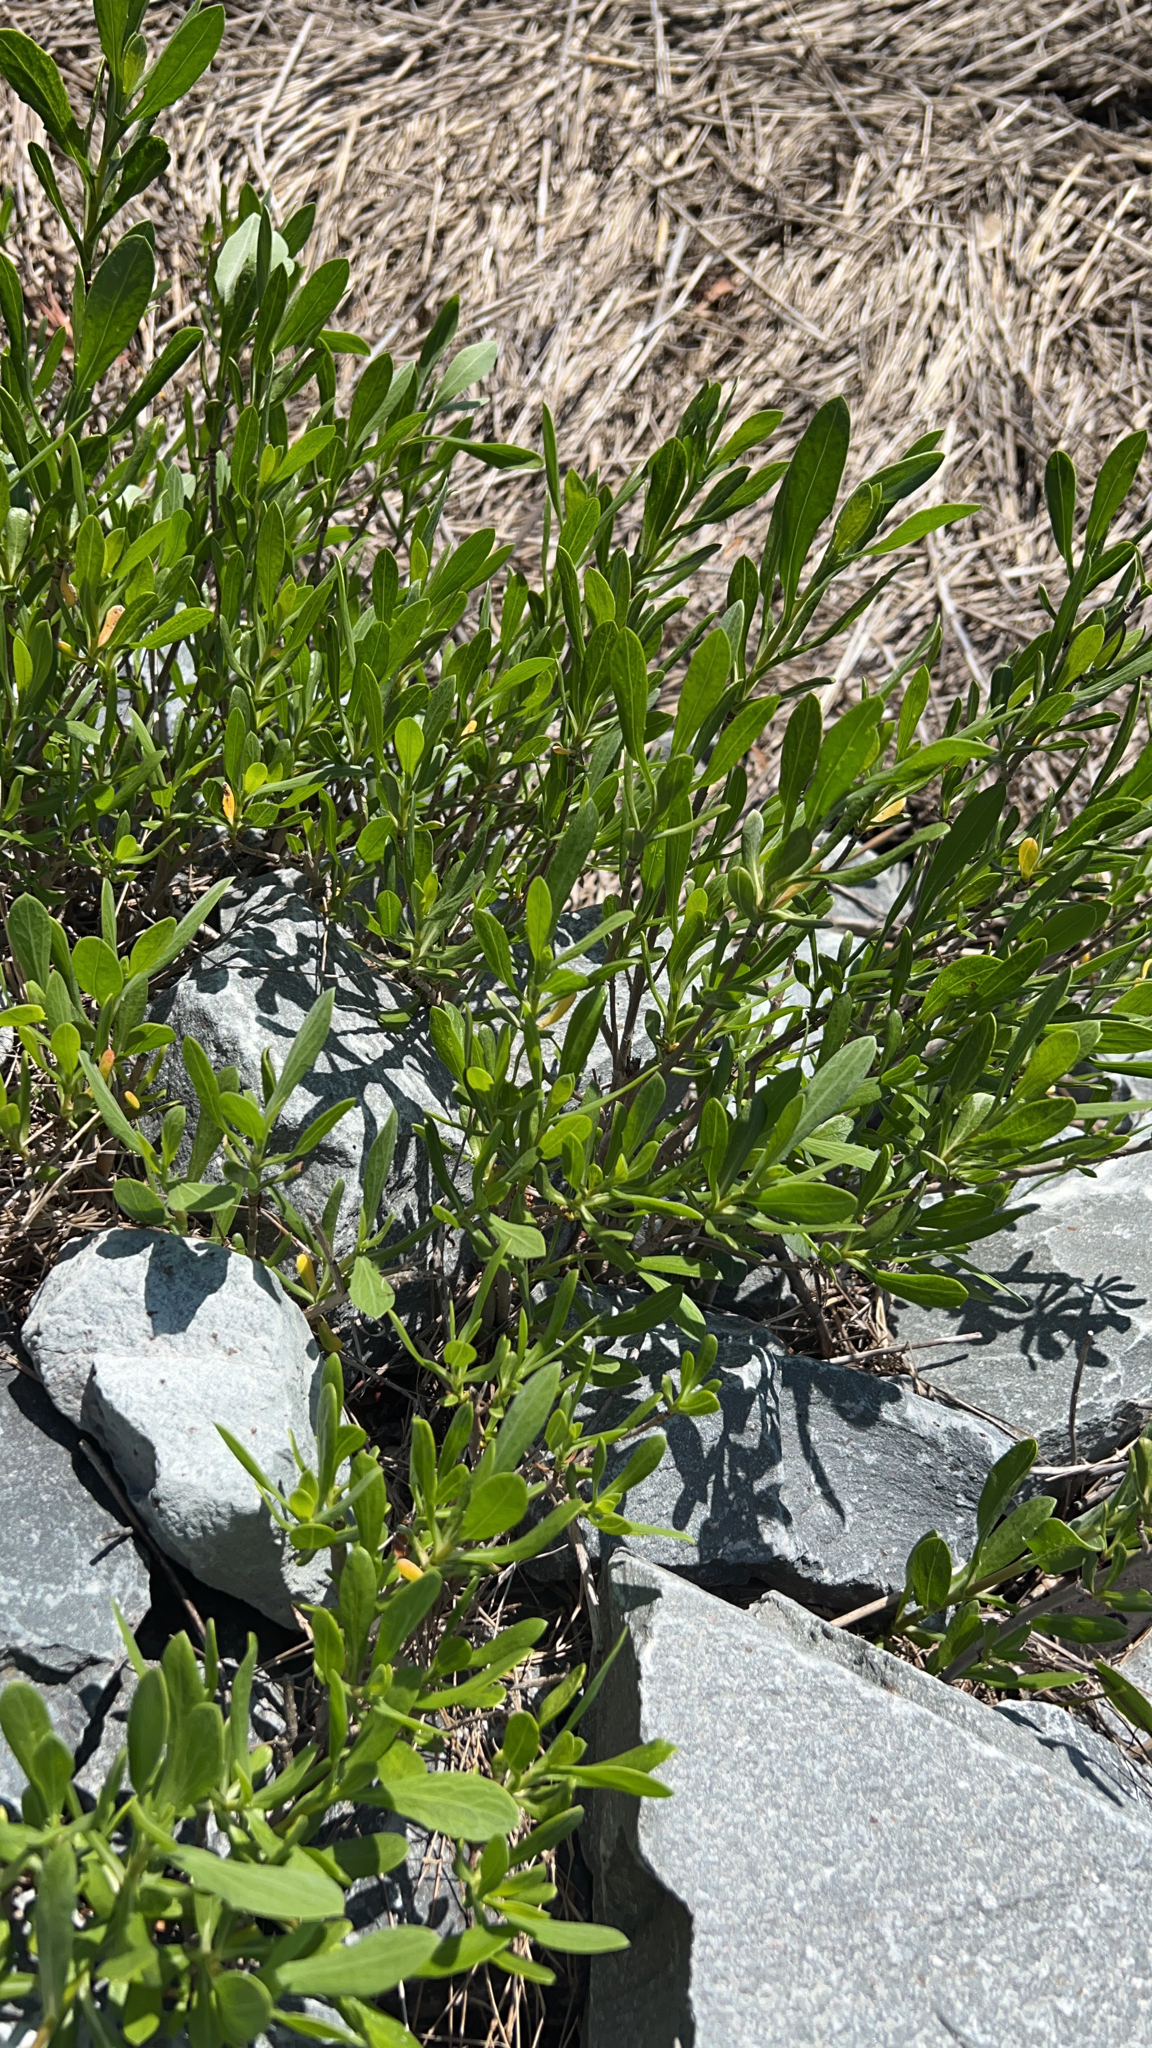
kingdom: Plantae
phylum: Tracheophyta
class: Magnoliopsida
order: Asterales
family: Asteraceae
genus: Borrichia
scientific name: Borrichia frutescens
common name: Sea oxeye
